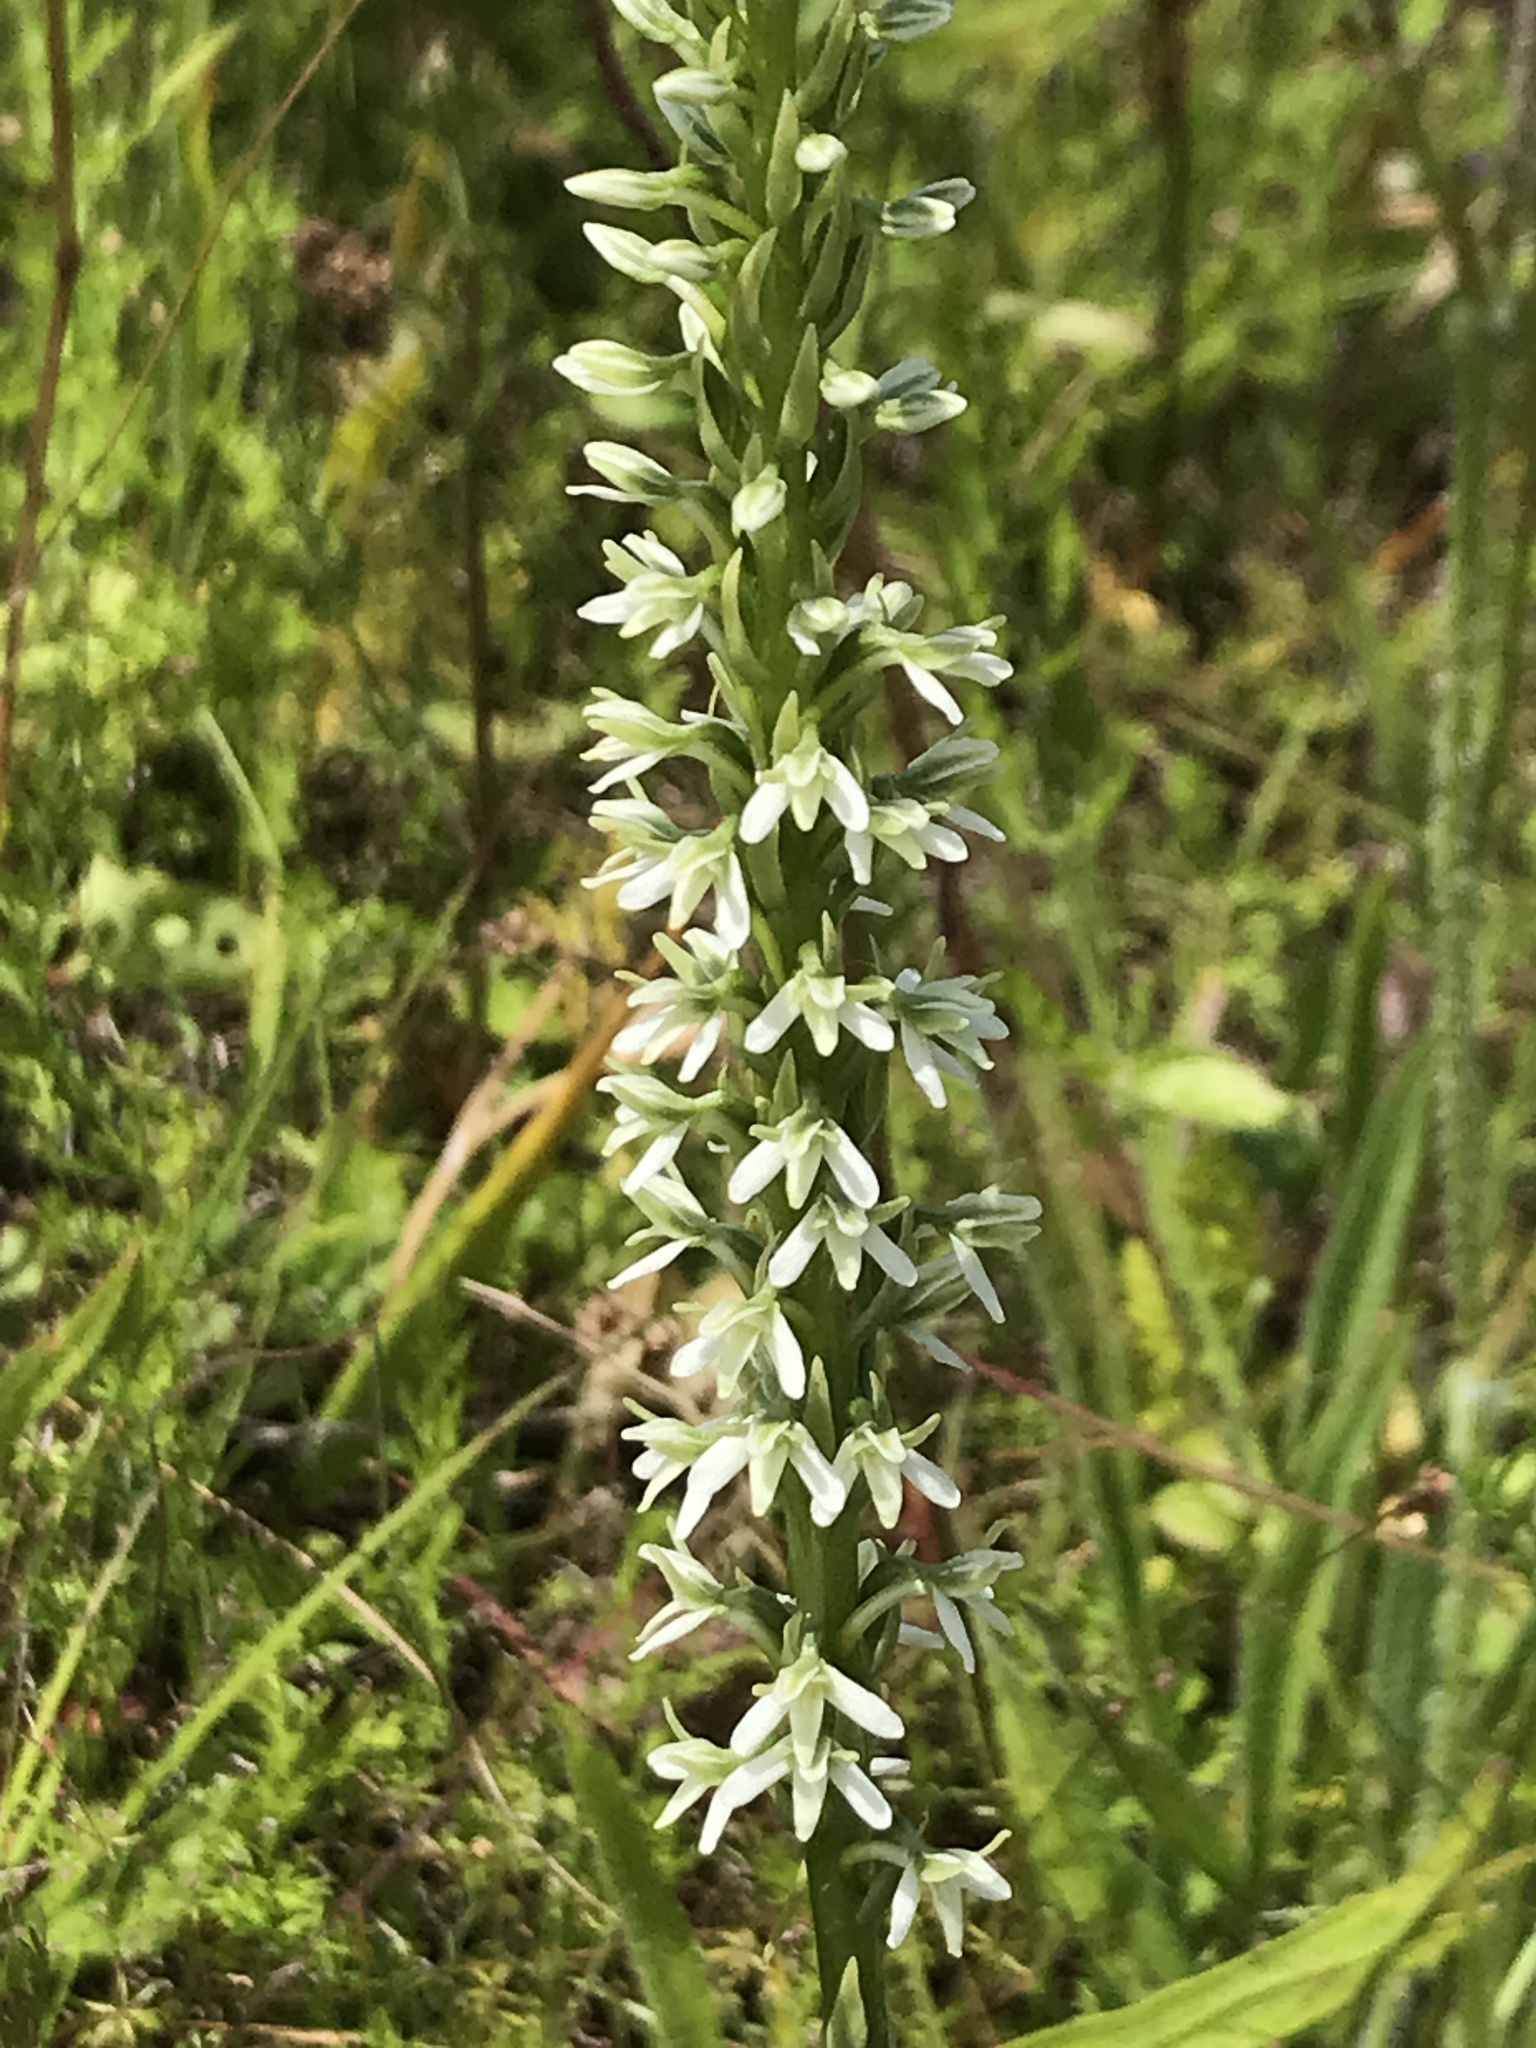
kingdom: Plantae
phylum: Tracheophyta
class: Liliopsida
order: Asparagales
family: Orchidaceae
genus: Platanthera
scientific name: Platanthera elegans
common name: Coast piperia
